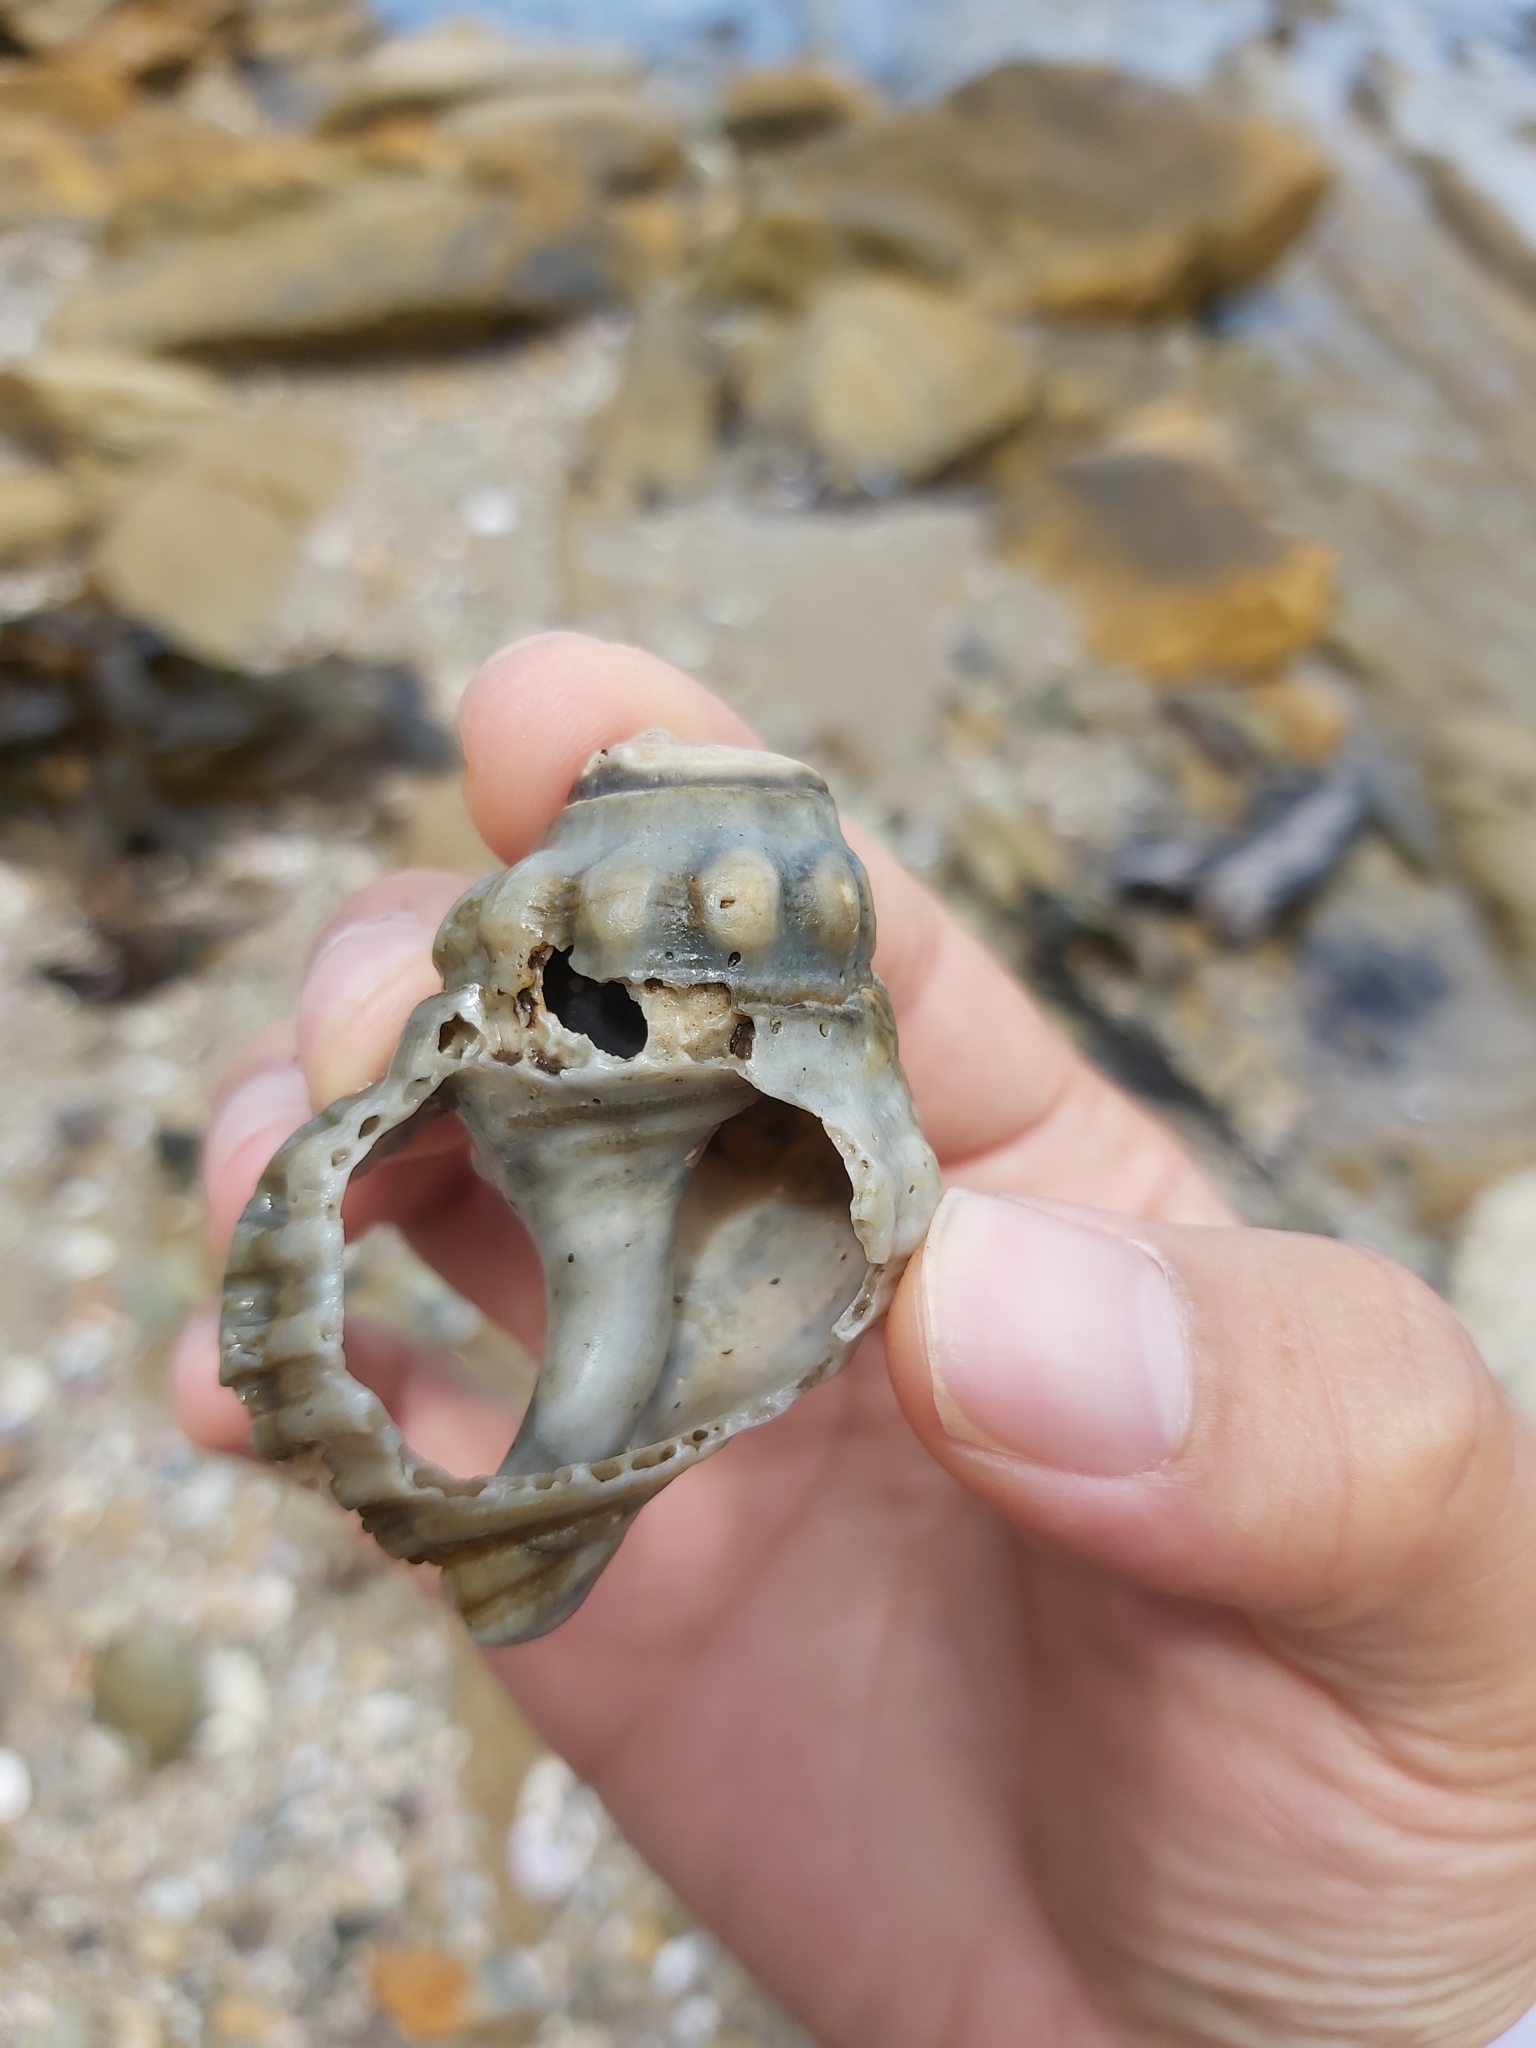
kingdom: Animalia
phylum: Mollusca
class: Gastropoda
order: Littorinimorpha
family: Cymatiidae
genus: Cabestana
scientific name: Cabestana spengleri
